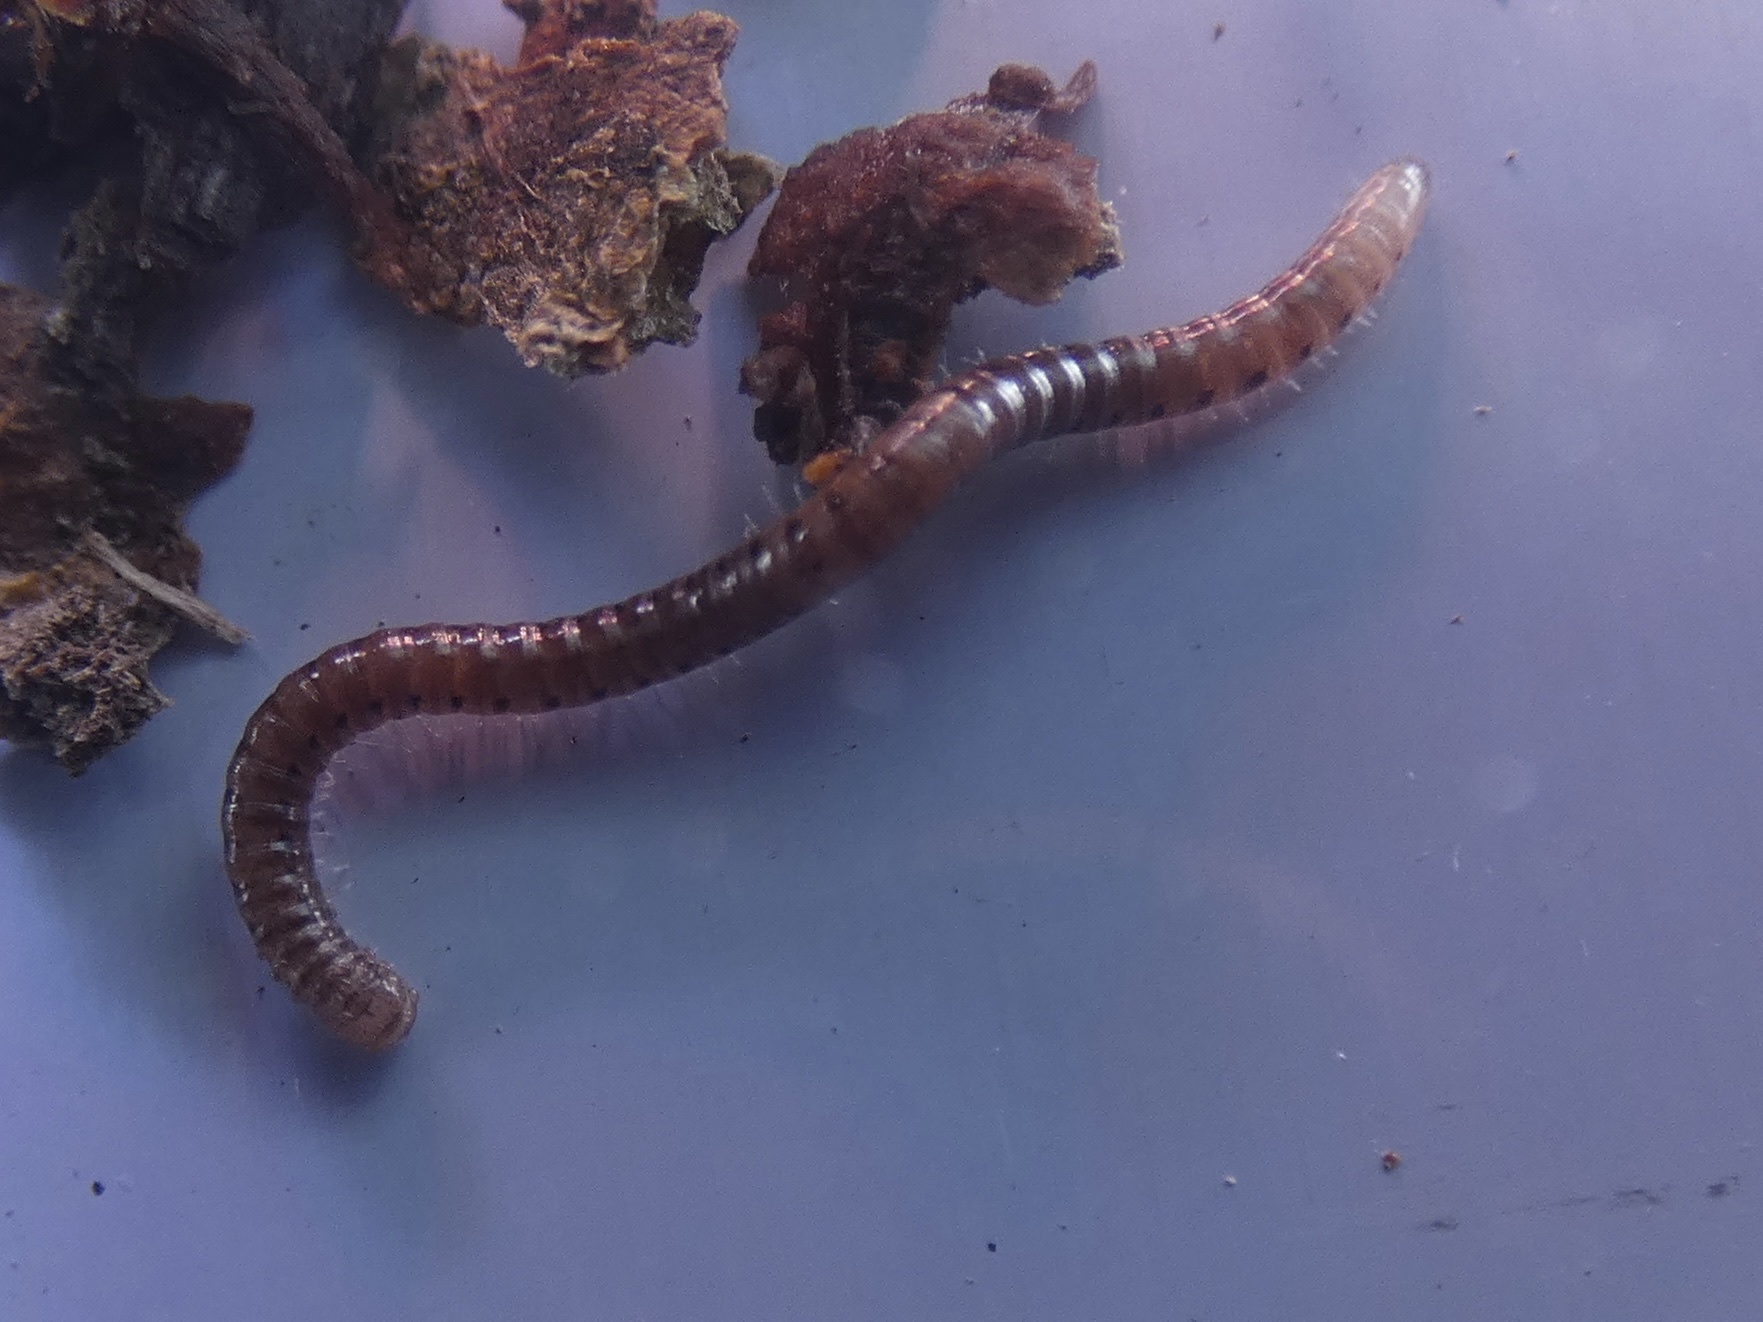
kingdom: Animalia
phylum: Arthropoda
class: Diplopoda
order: Julida
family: Blaniulidae
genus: Proteroiulus
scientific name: Proteroiulus fuscus
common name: Millipede
